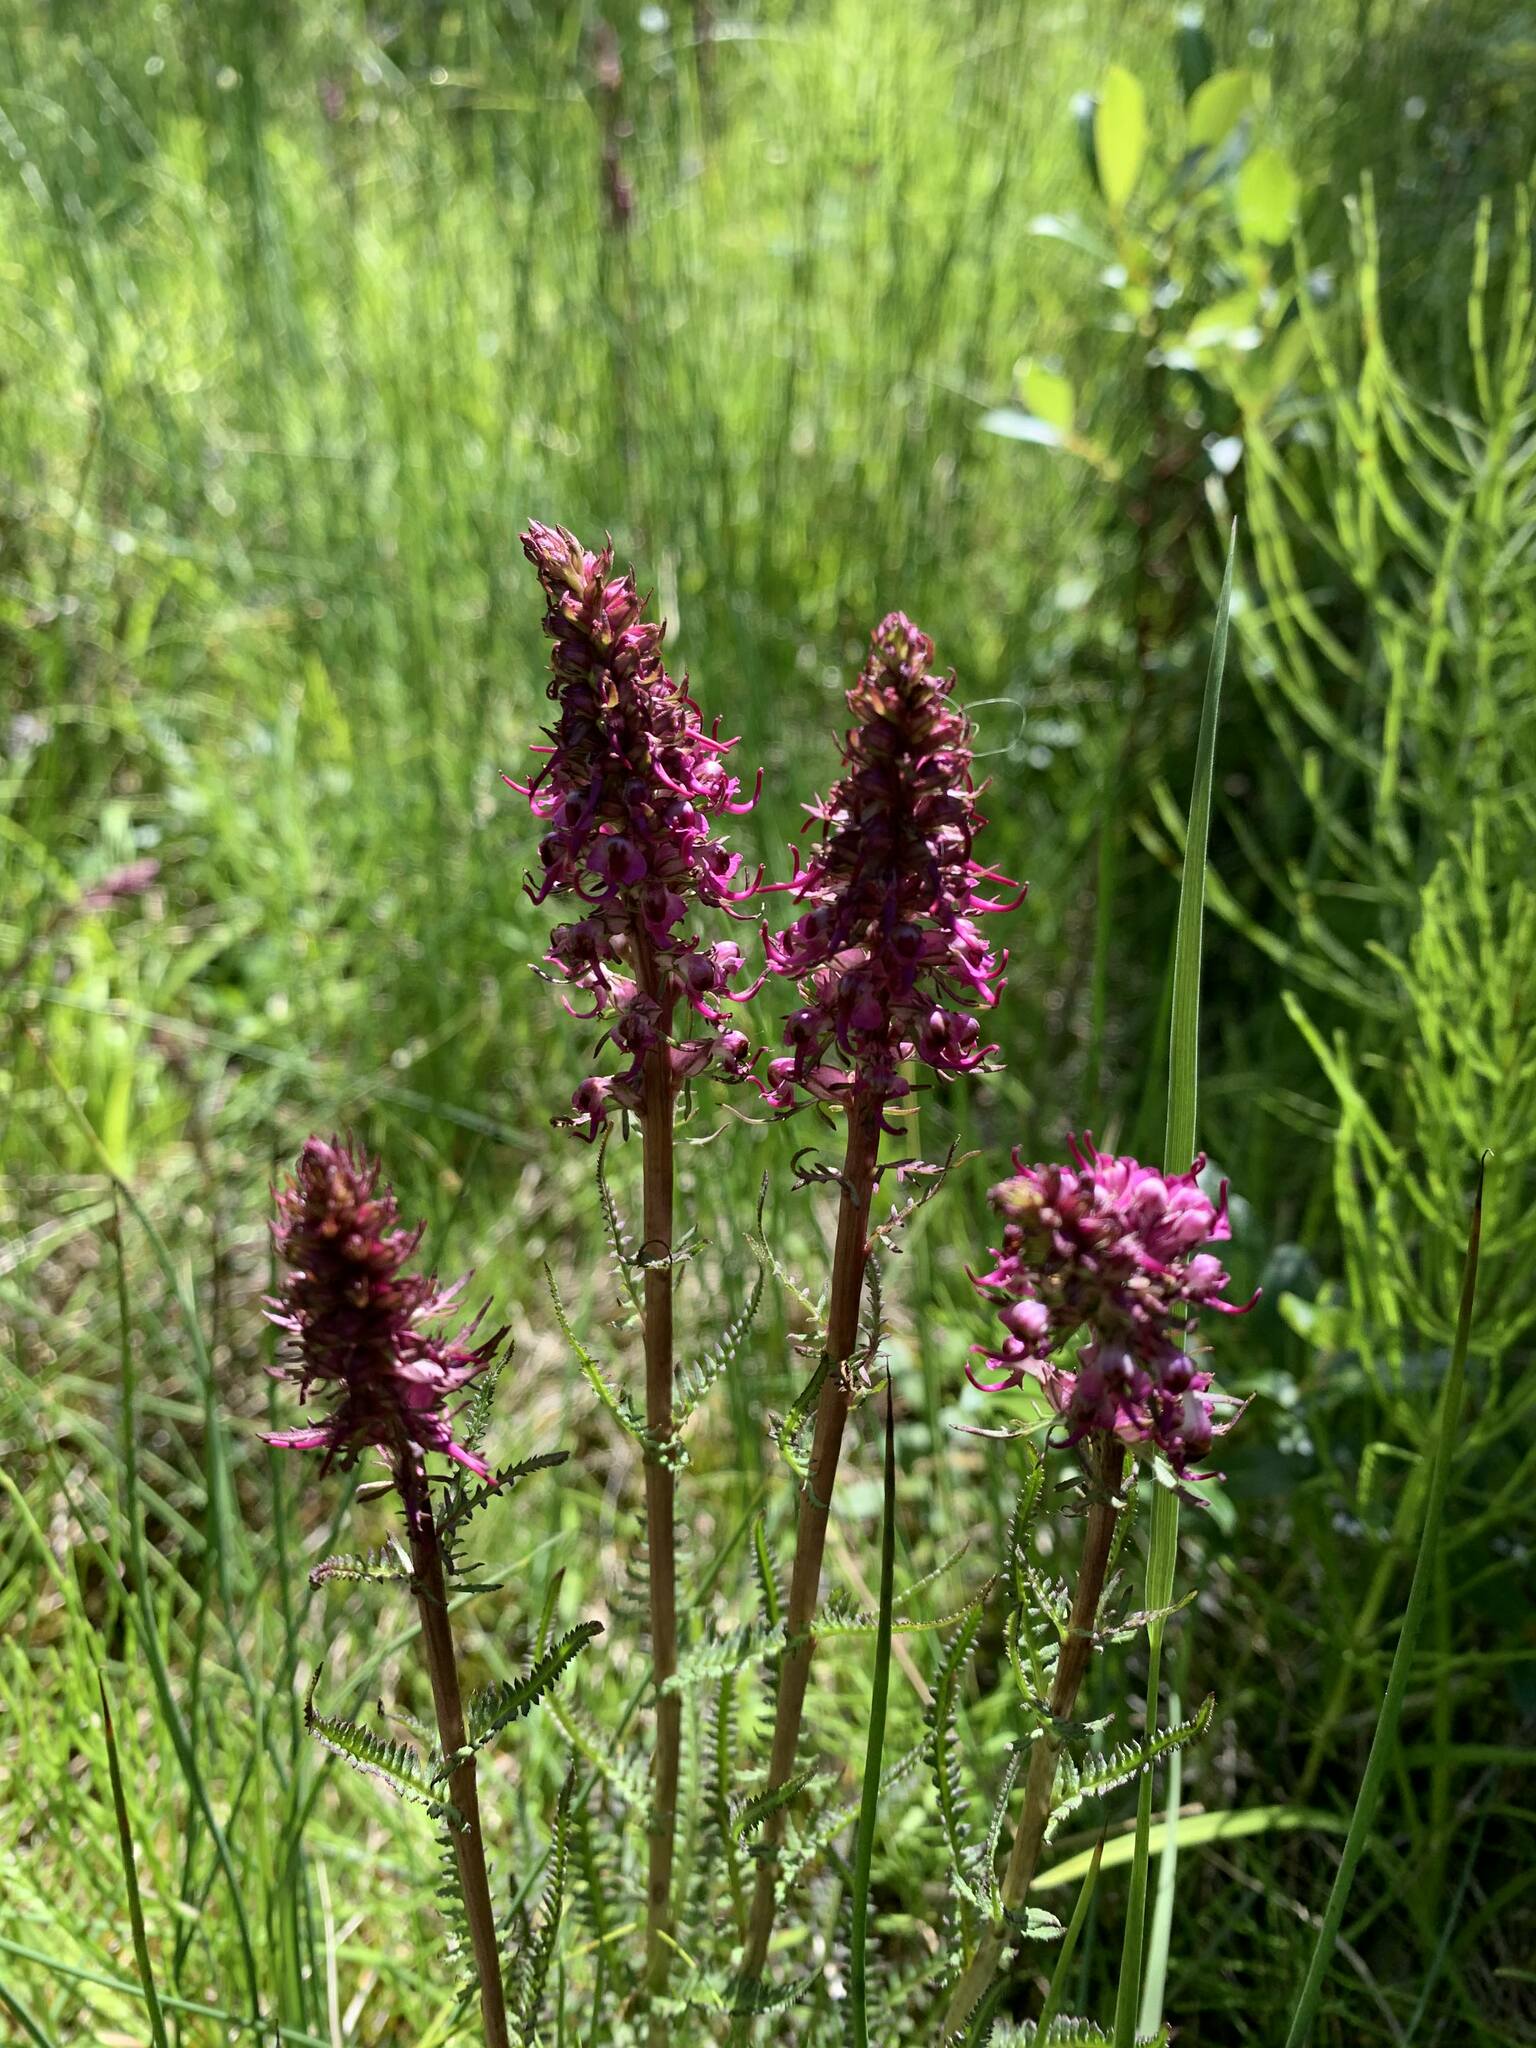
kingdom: Plantae
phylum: Tracheophyta
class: Magnoliopsida
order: Lamiales
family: Orobanchaceae
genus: Pedicularis
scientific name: Pedicularis groenlandica
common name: Elephant's-head
